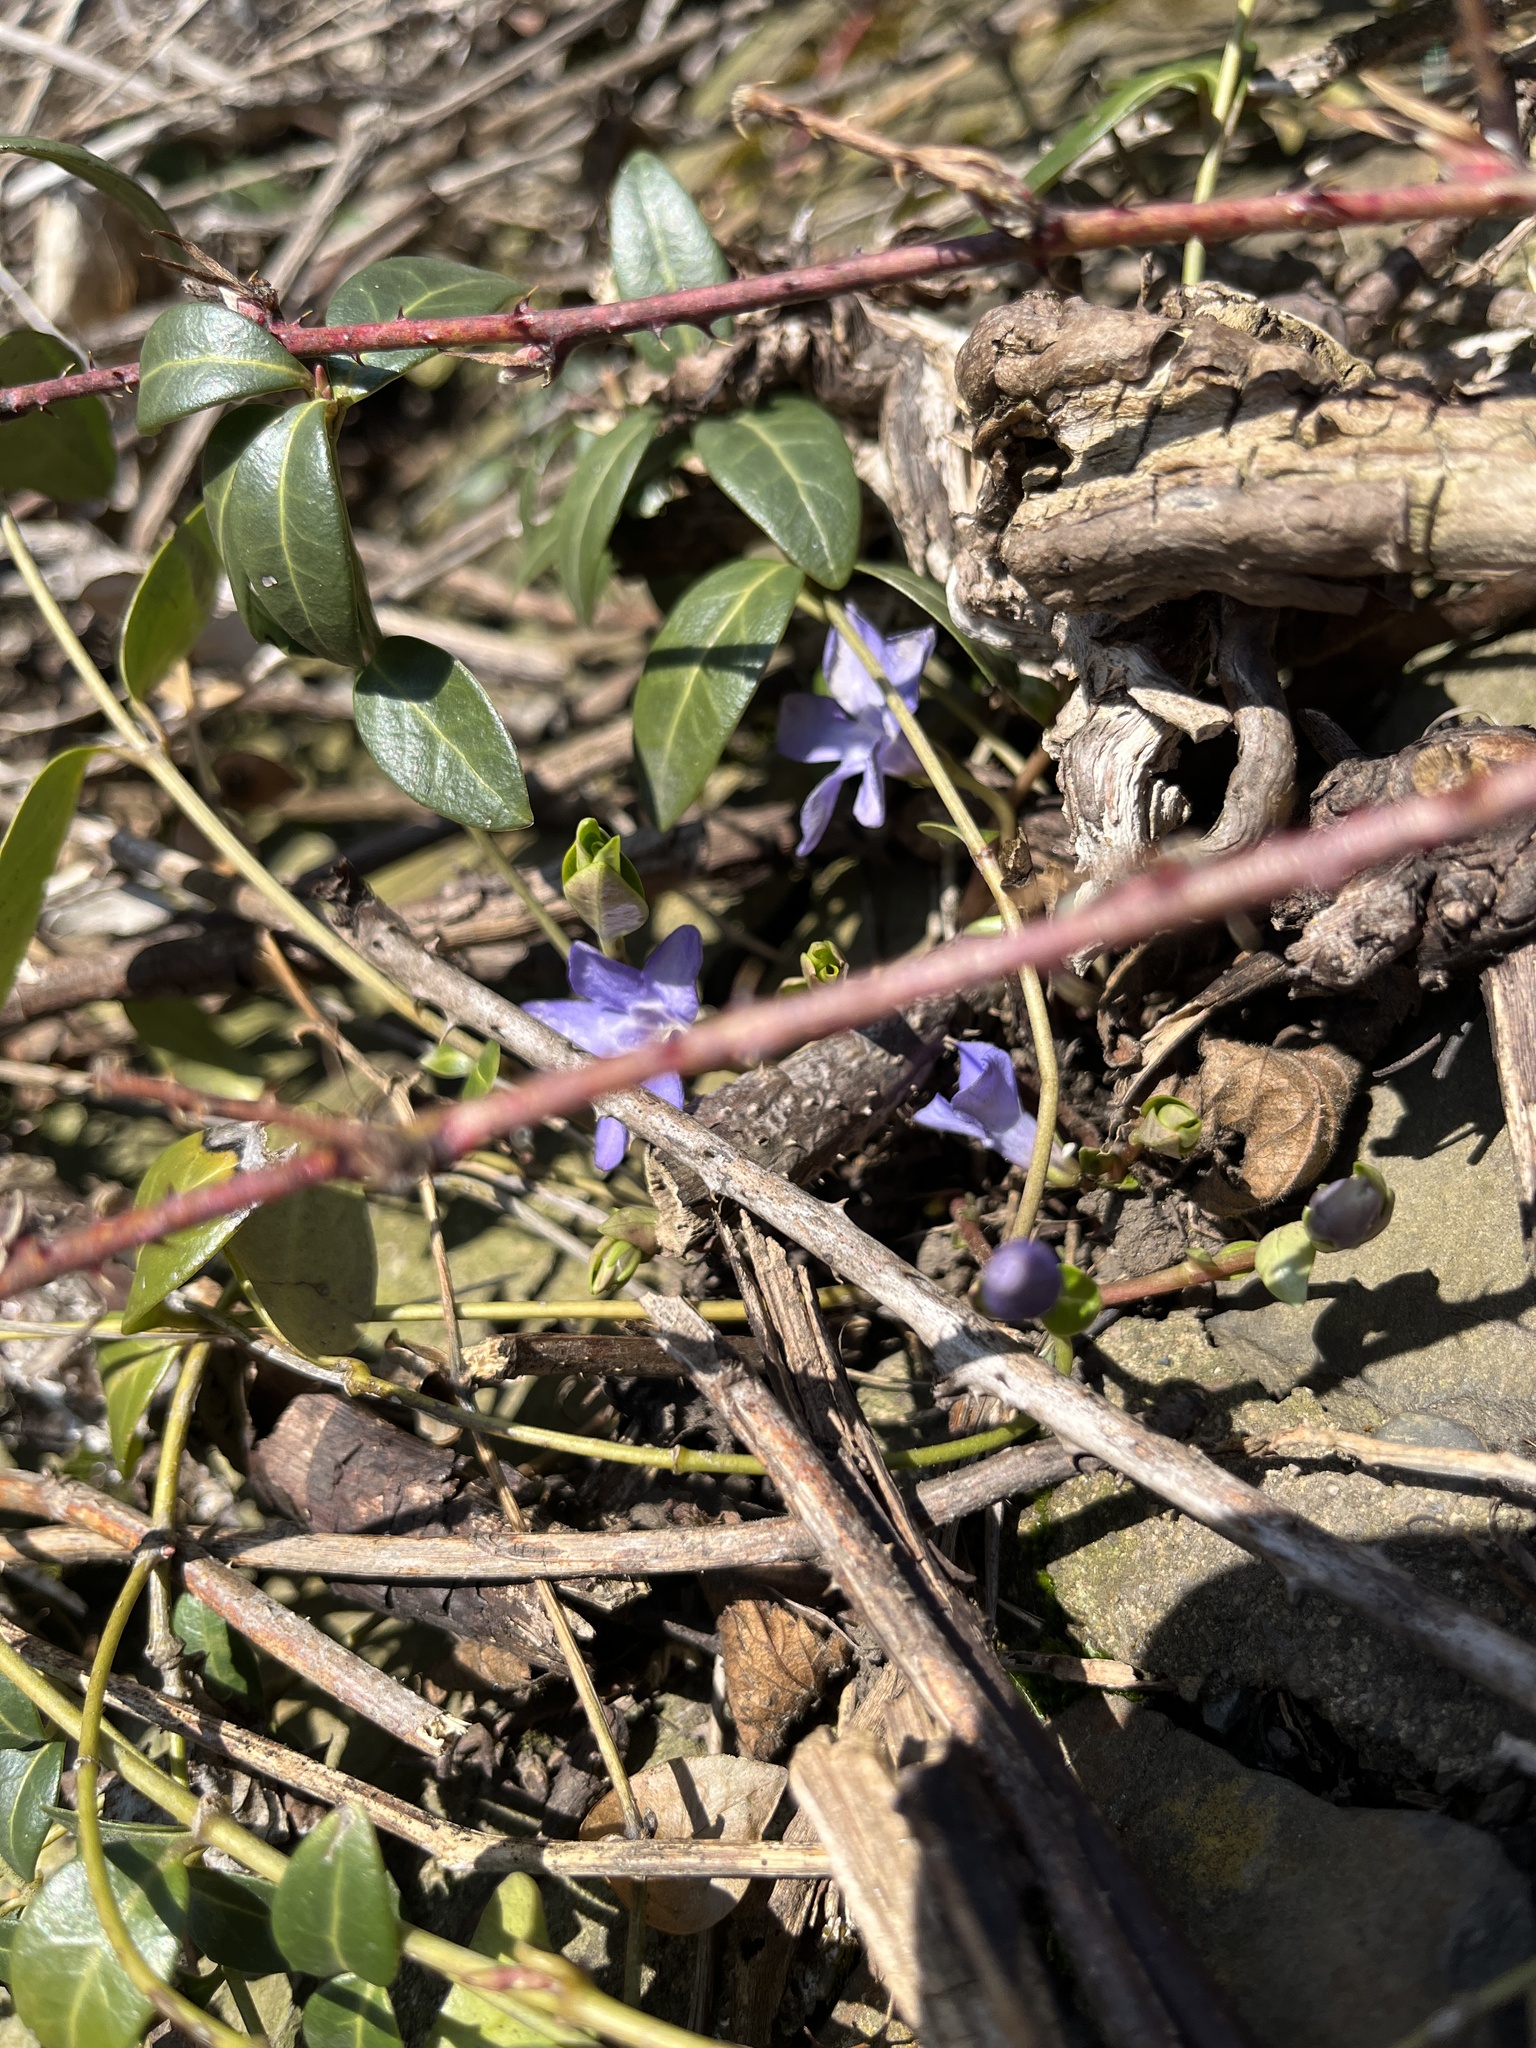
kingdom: Plantae
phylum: Tracheophyta
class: Magnoliopsida
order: Gentianales
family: Apocynaceae
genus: Vinca
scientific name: Vinca minor
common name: Lesser periwinkle
